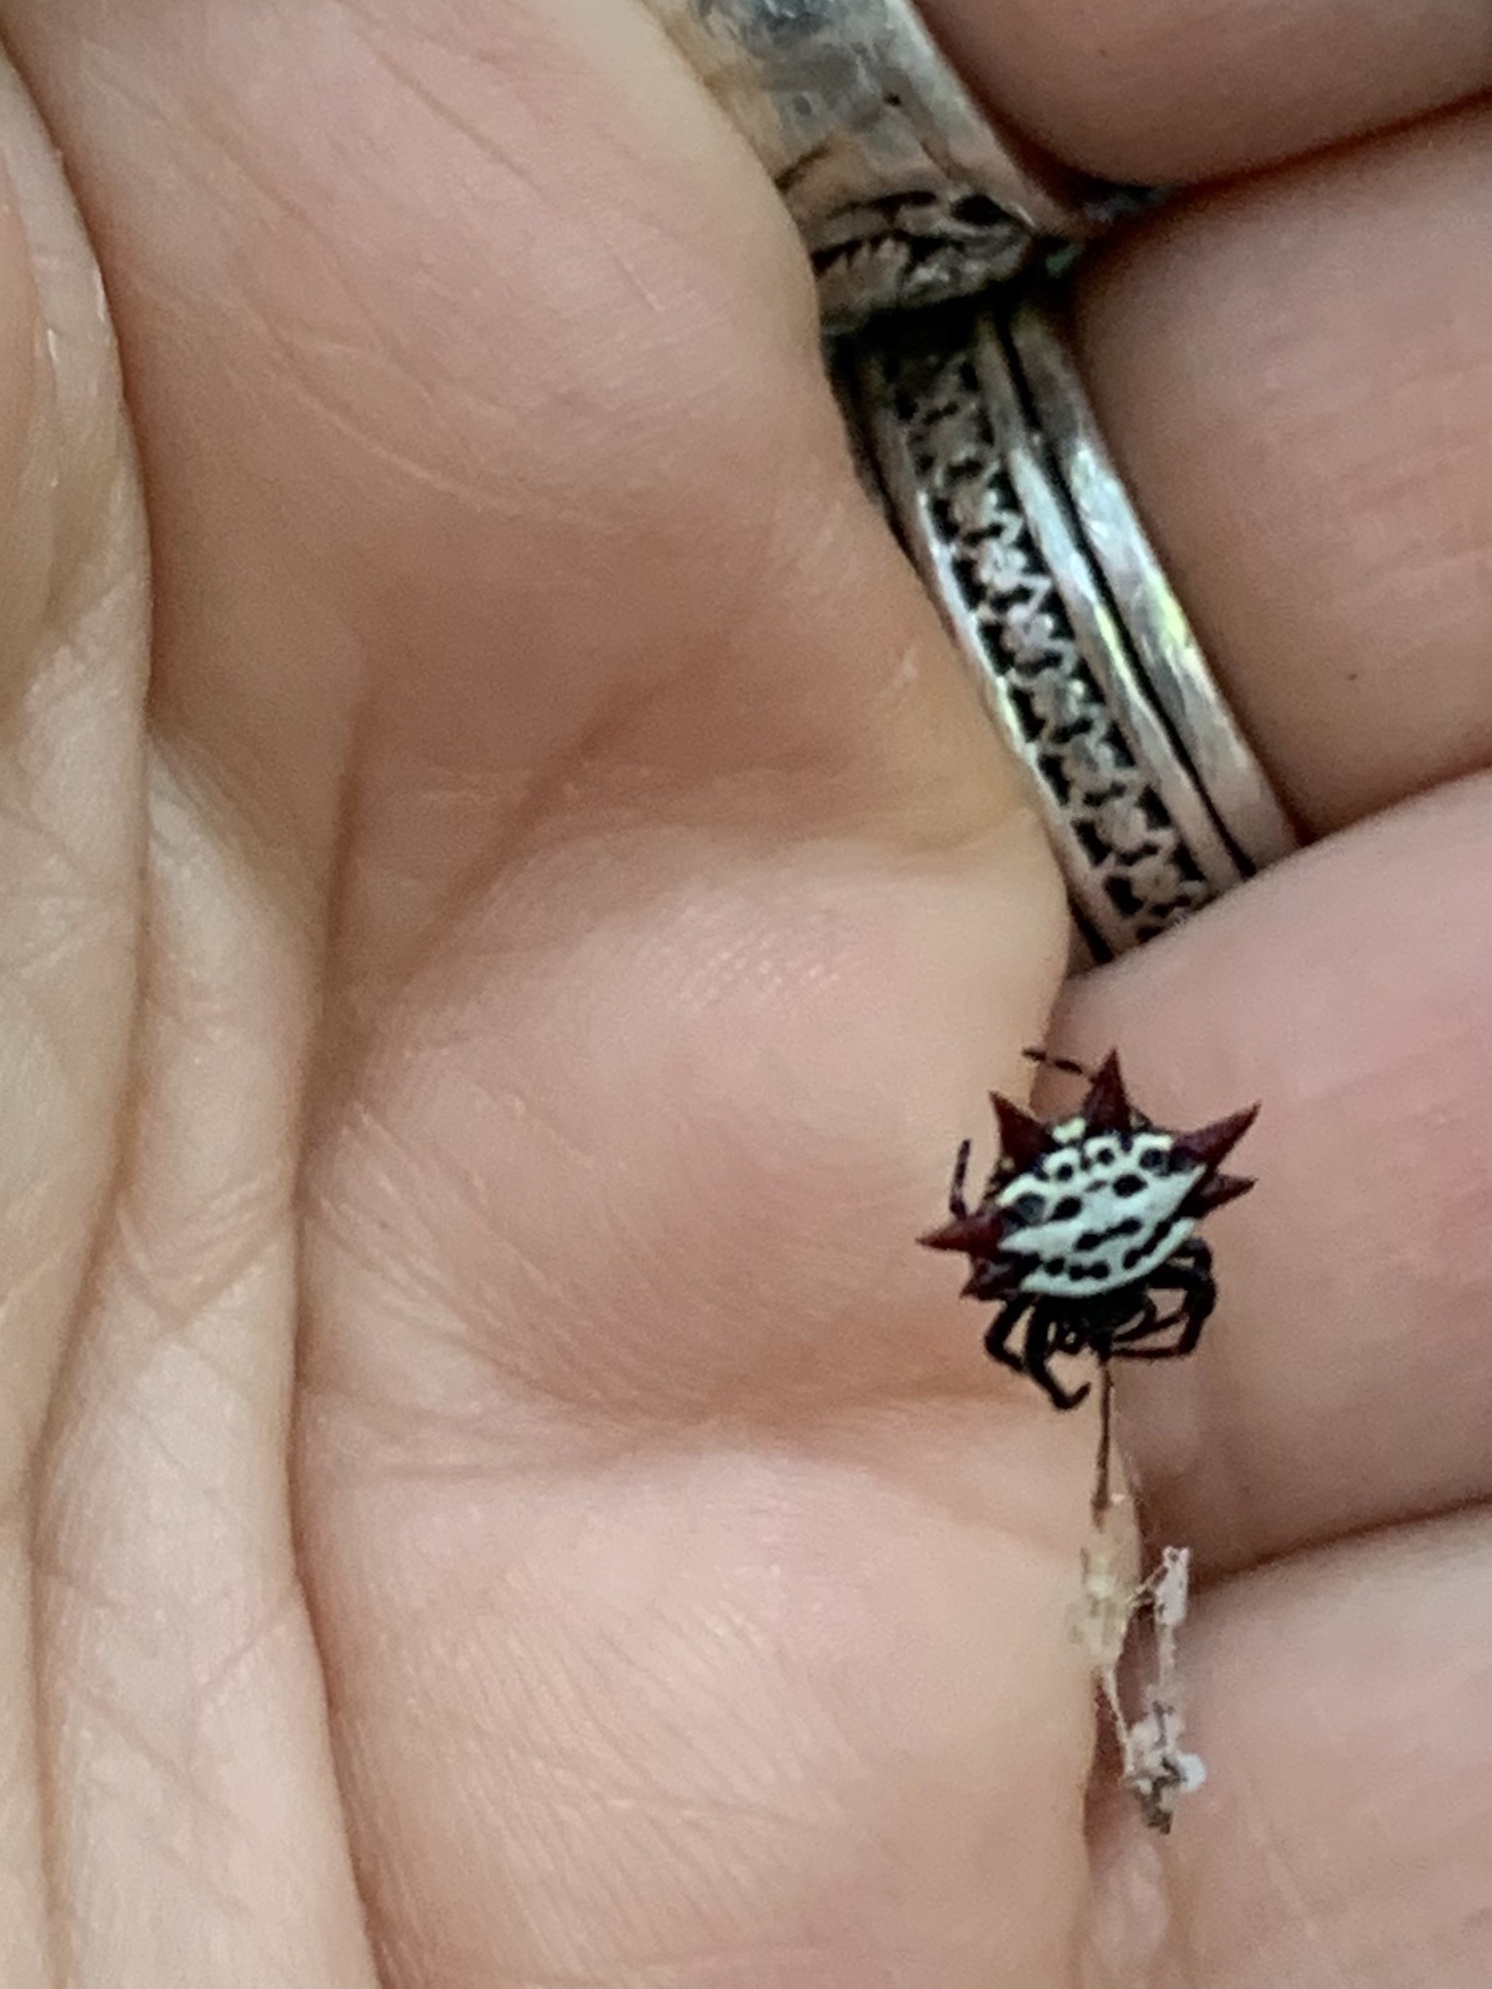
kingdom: Animalia
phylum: Arthropoda
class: Arachnida
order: Araneae
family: Araneidae
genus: Gasteracantha
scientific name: Gasteracantha cancriformis
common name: Orb weavers
